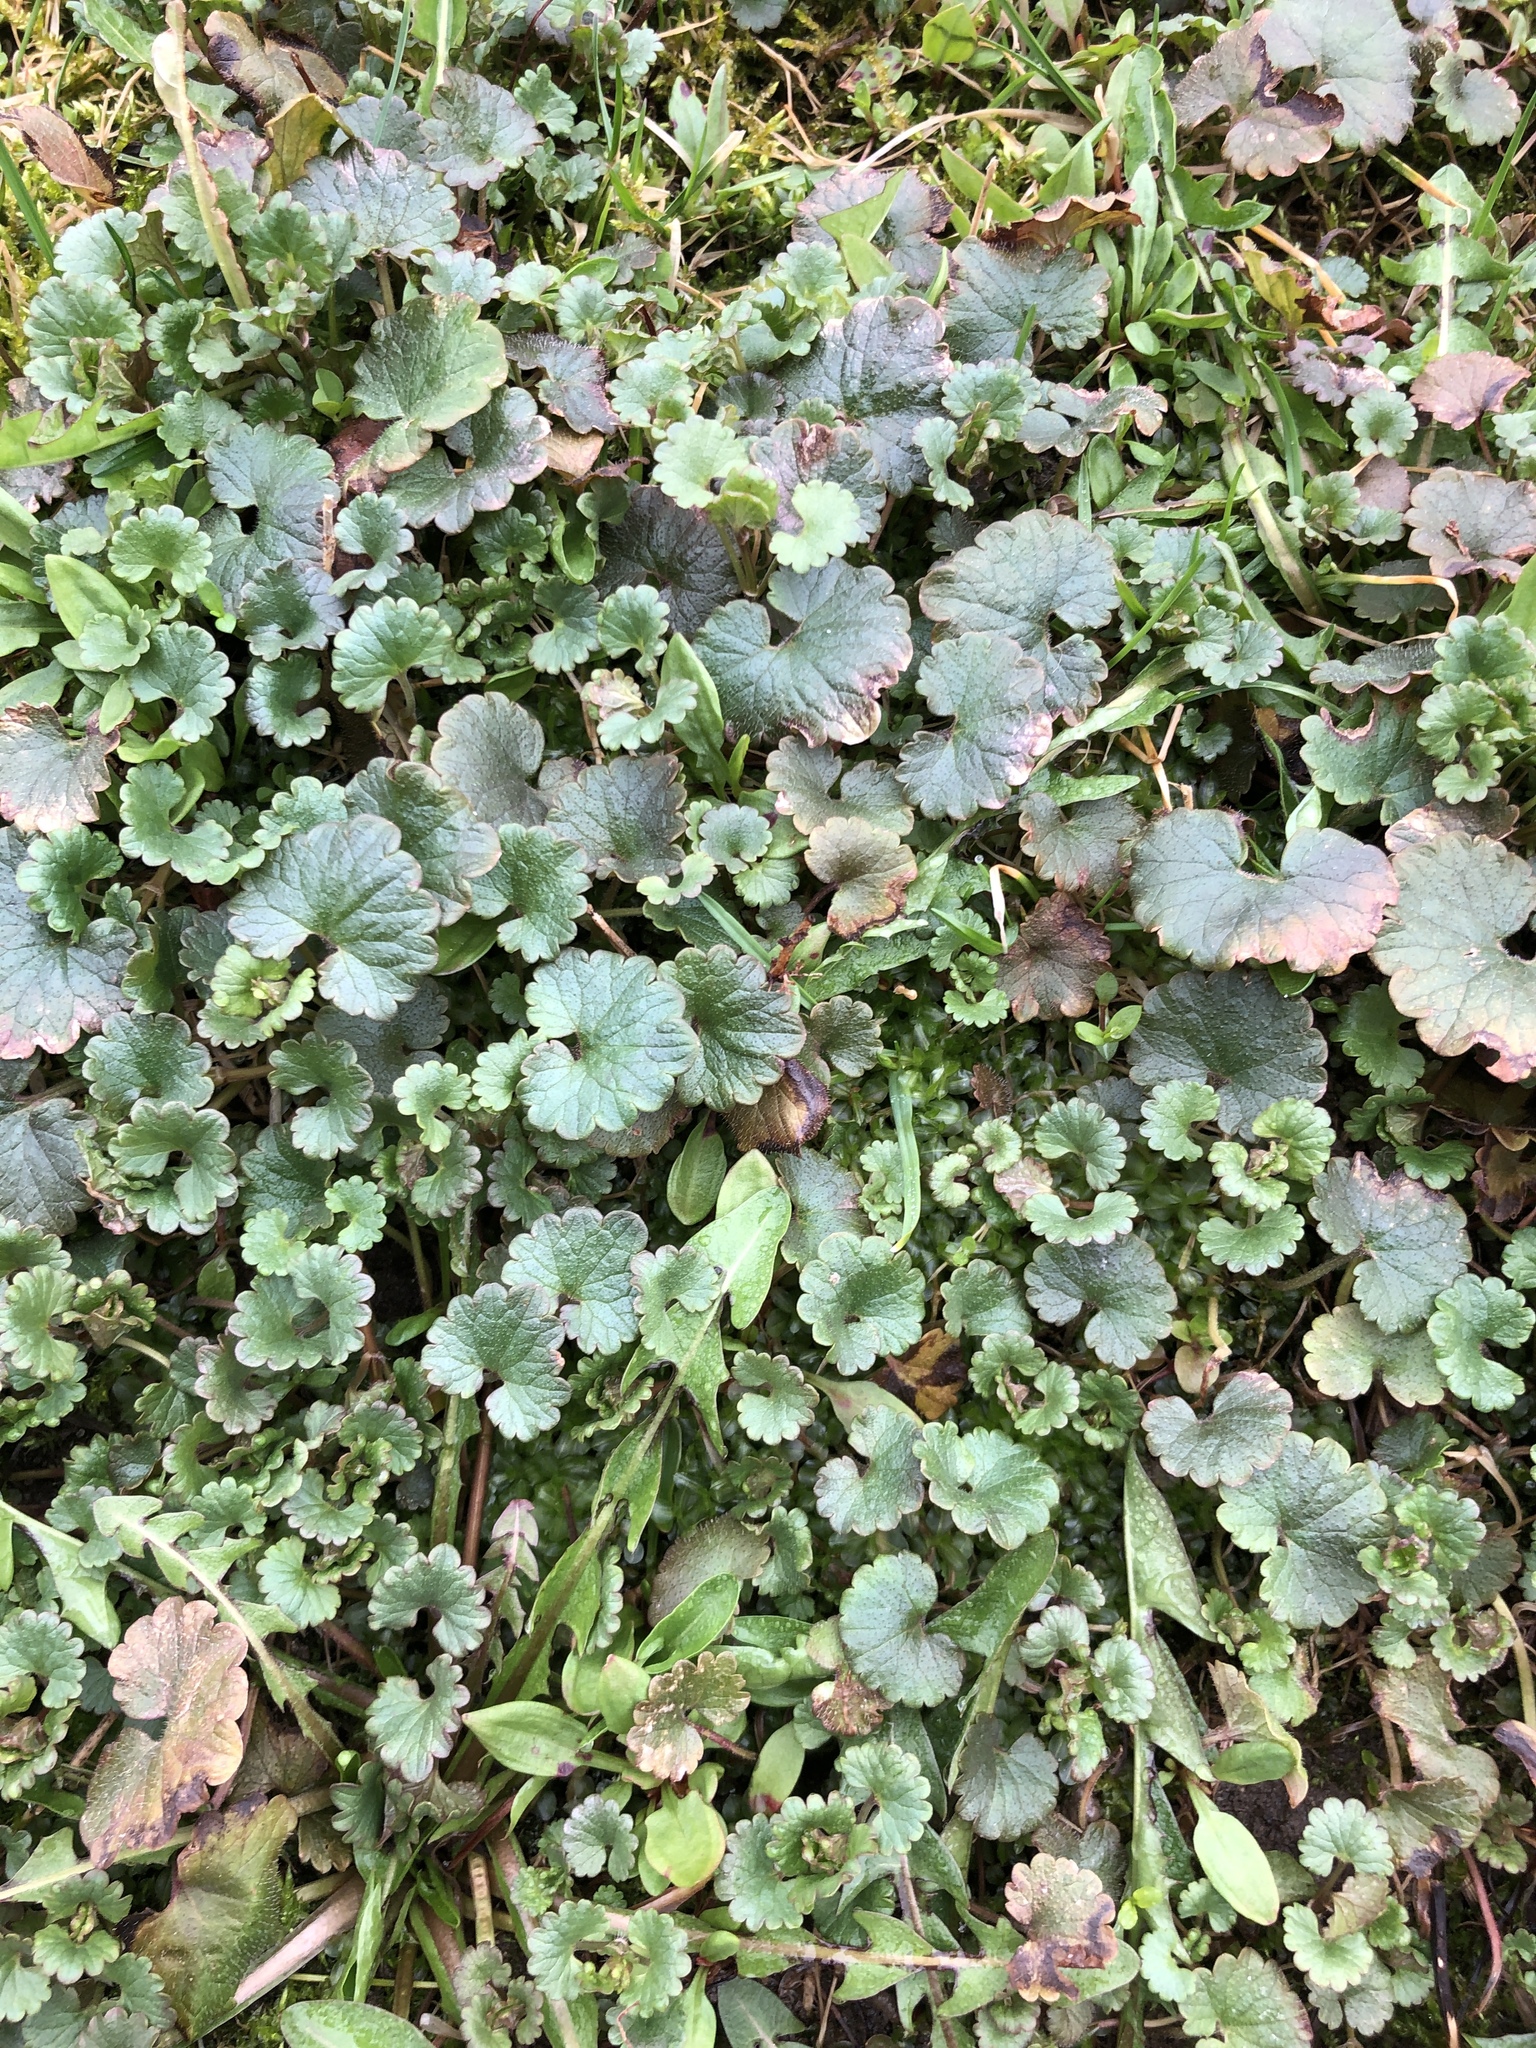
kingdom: Plantae
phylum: Tracheophyta
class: Magnoliopsida
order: Lamiales
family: Lamiaceae
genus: Glechoma
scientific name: Glechoma hederacea
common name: Ground ivy
